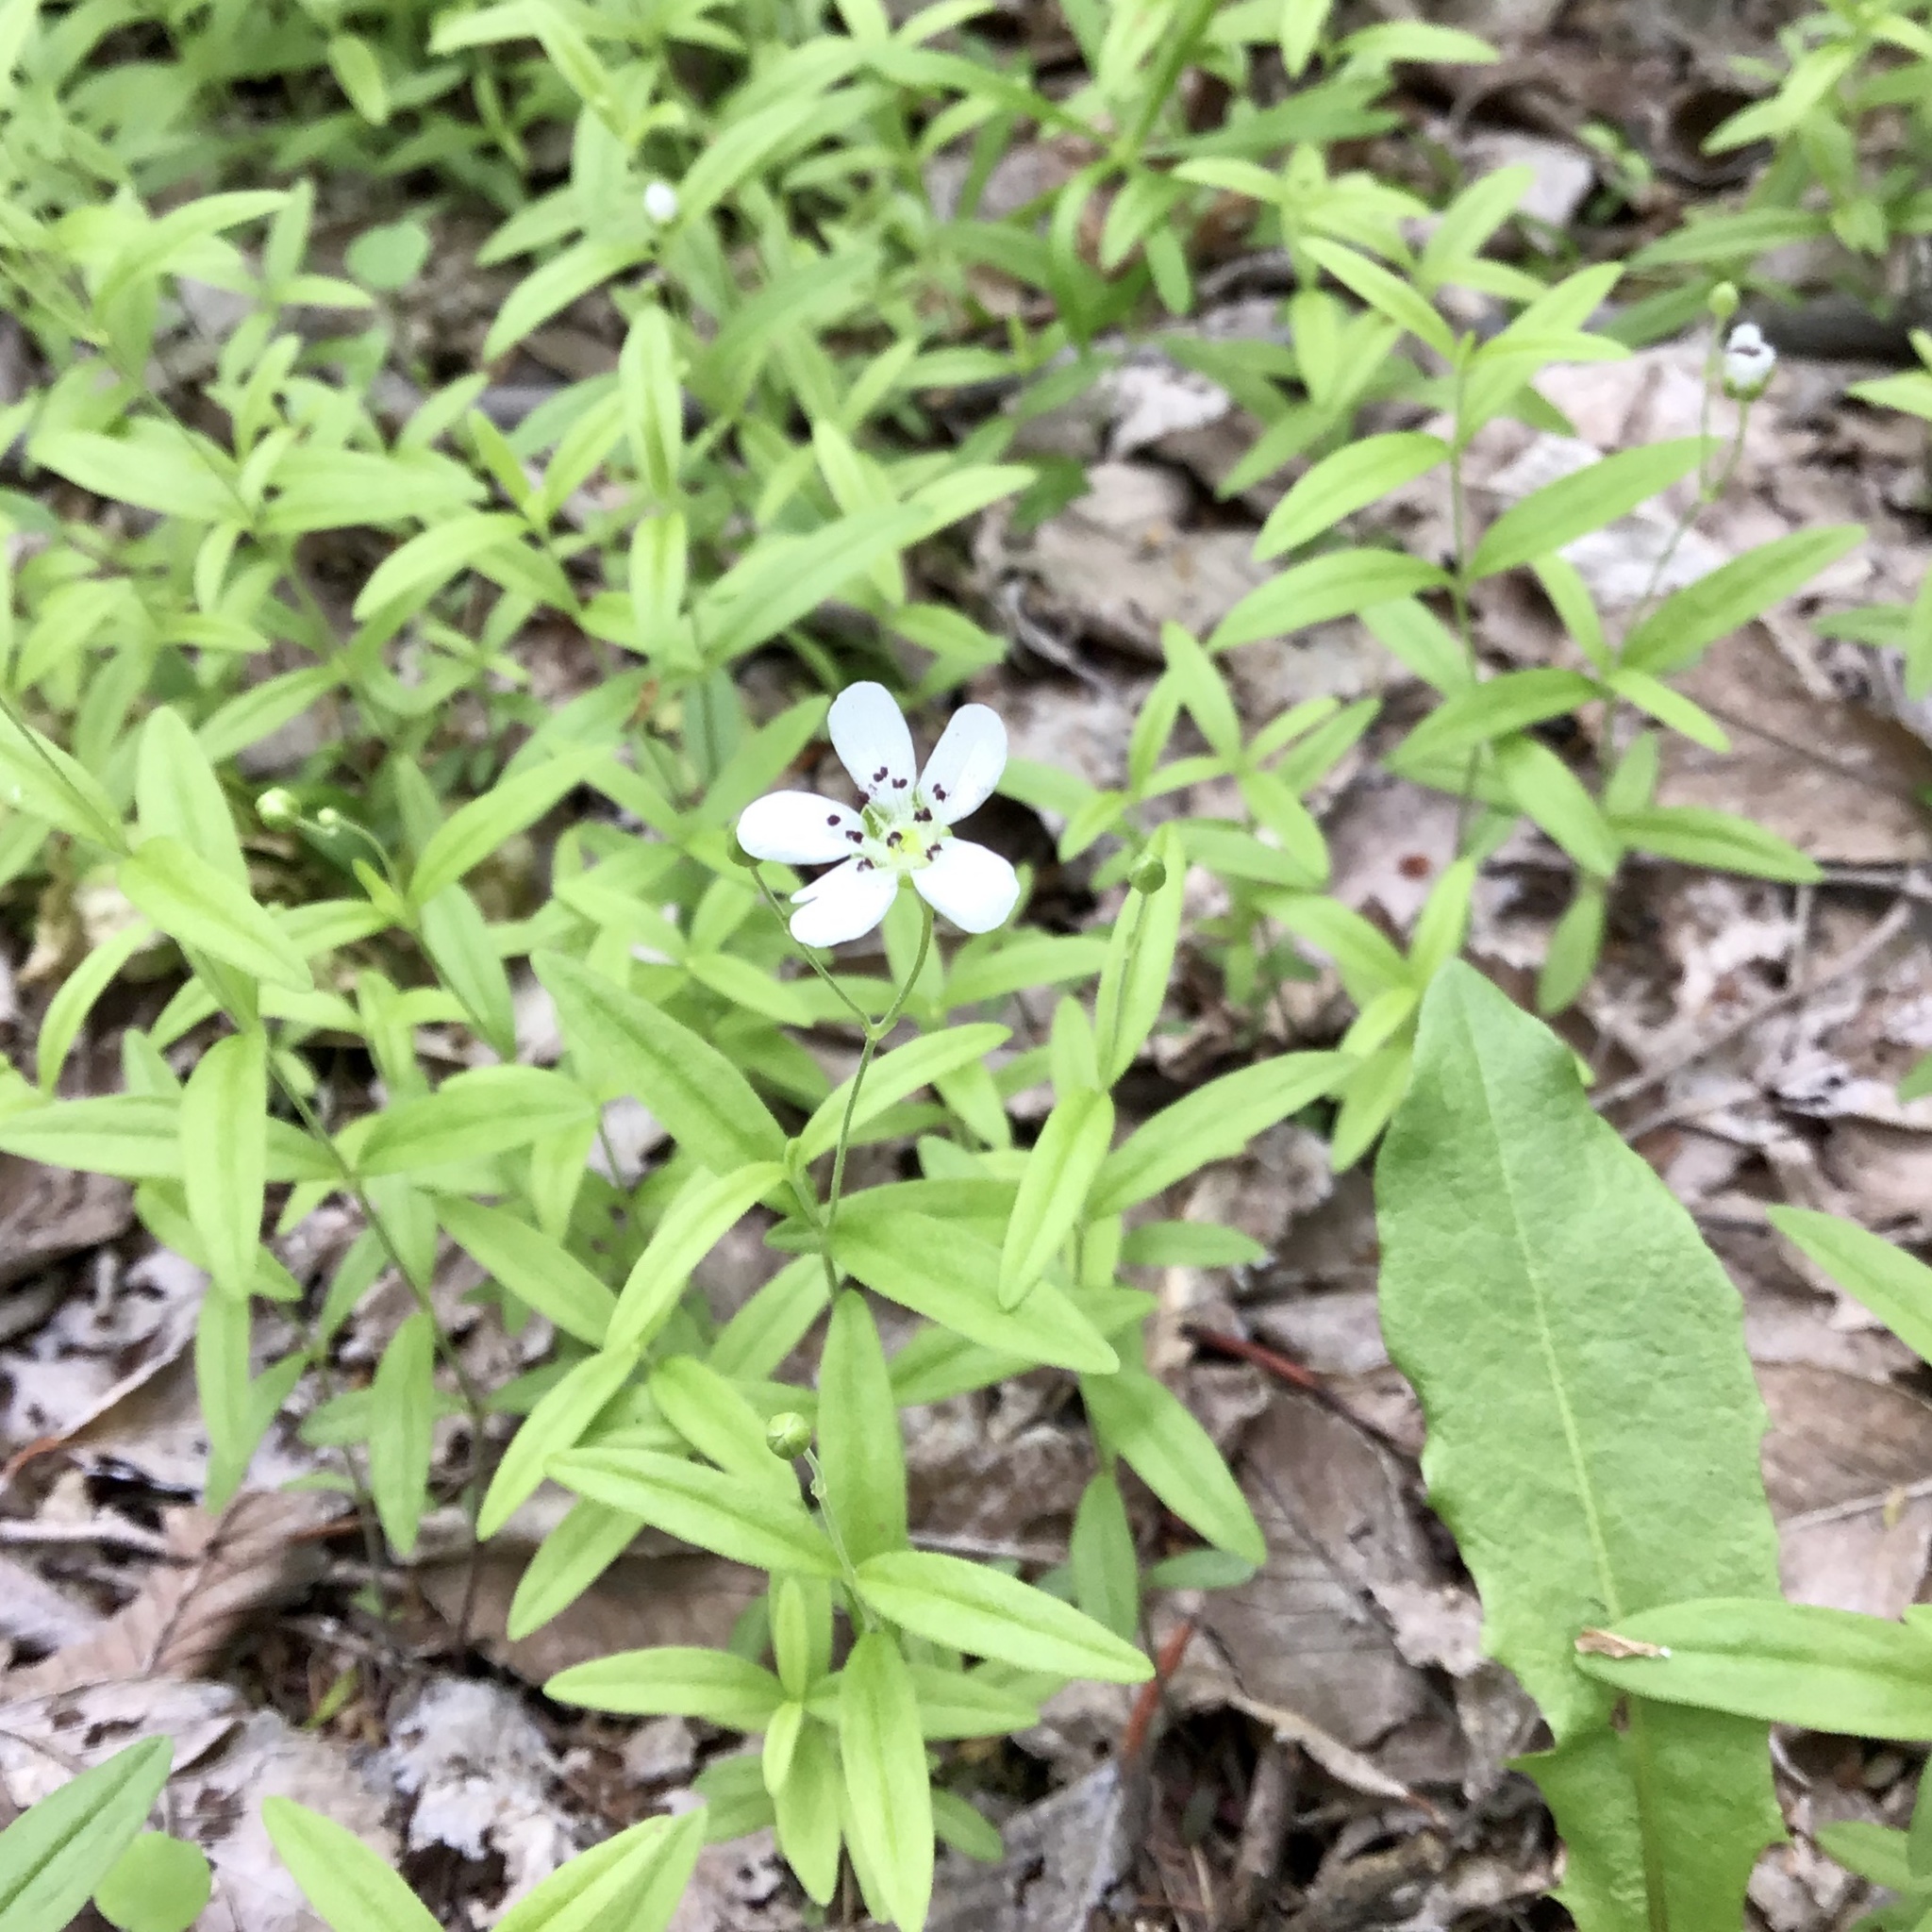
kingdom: Plantae
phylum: Tracheophyta
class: Magnoliopsida
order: Caryophyllales
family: Caryophyllaceae
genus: Moehringia
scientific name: Moehringia lateriflora
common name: Blunt-leaved sandwort
